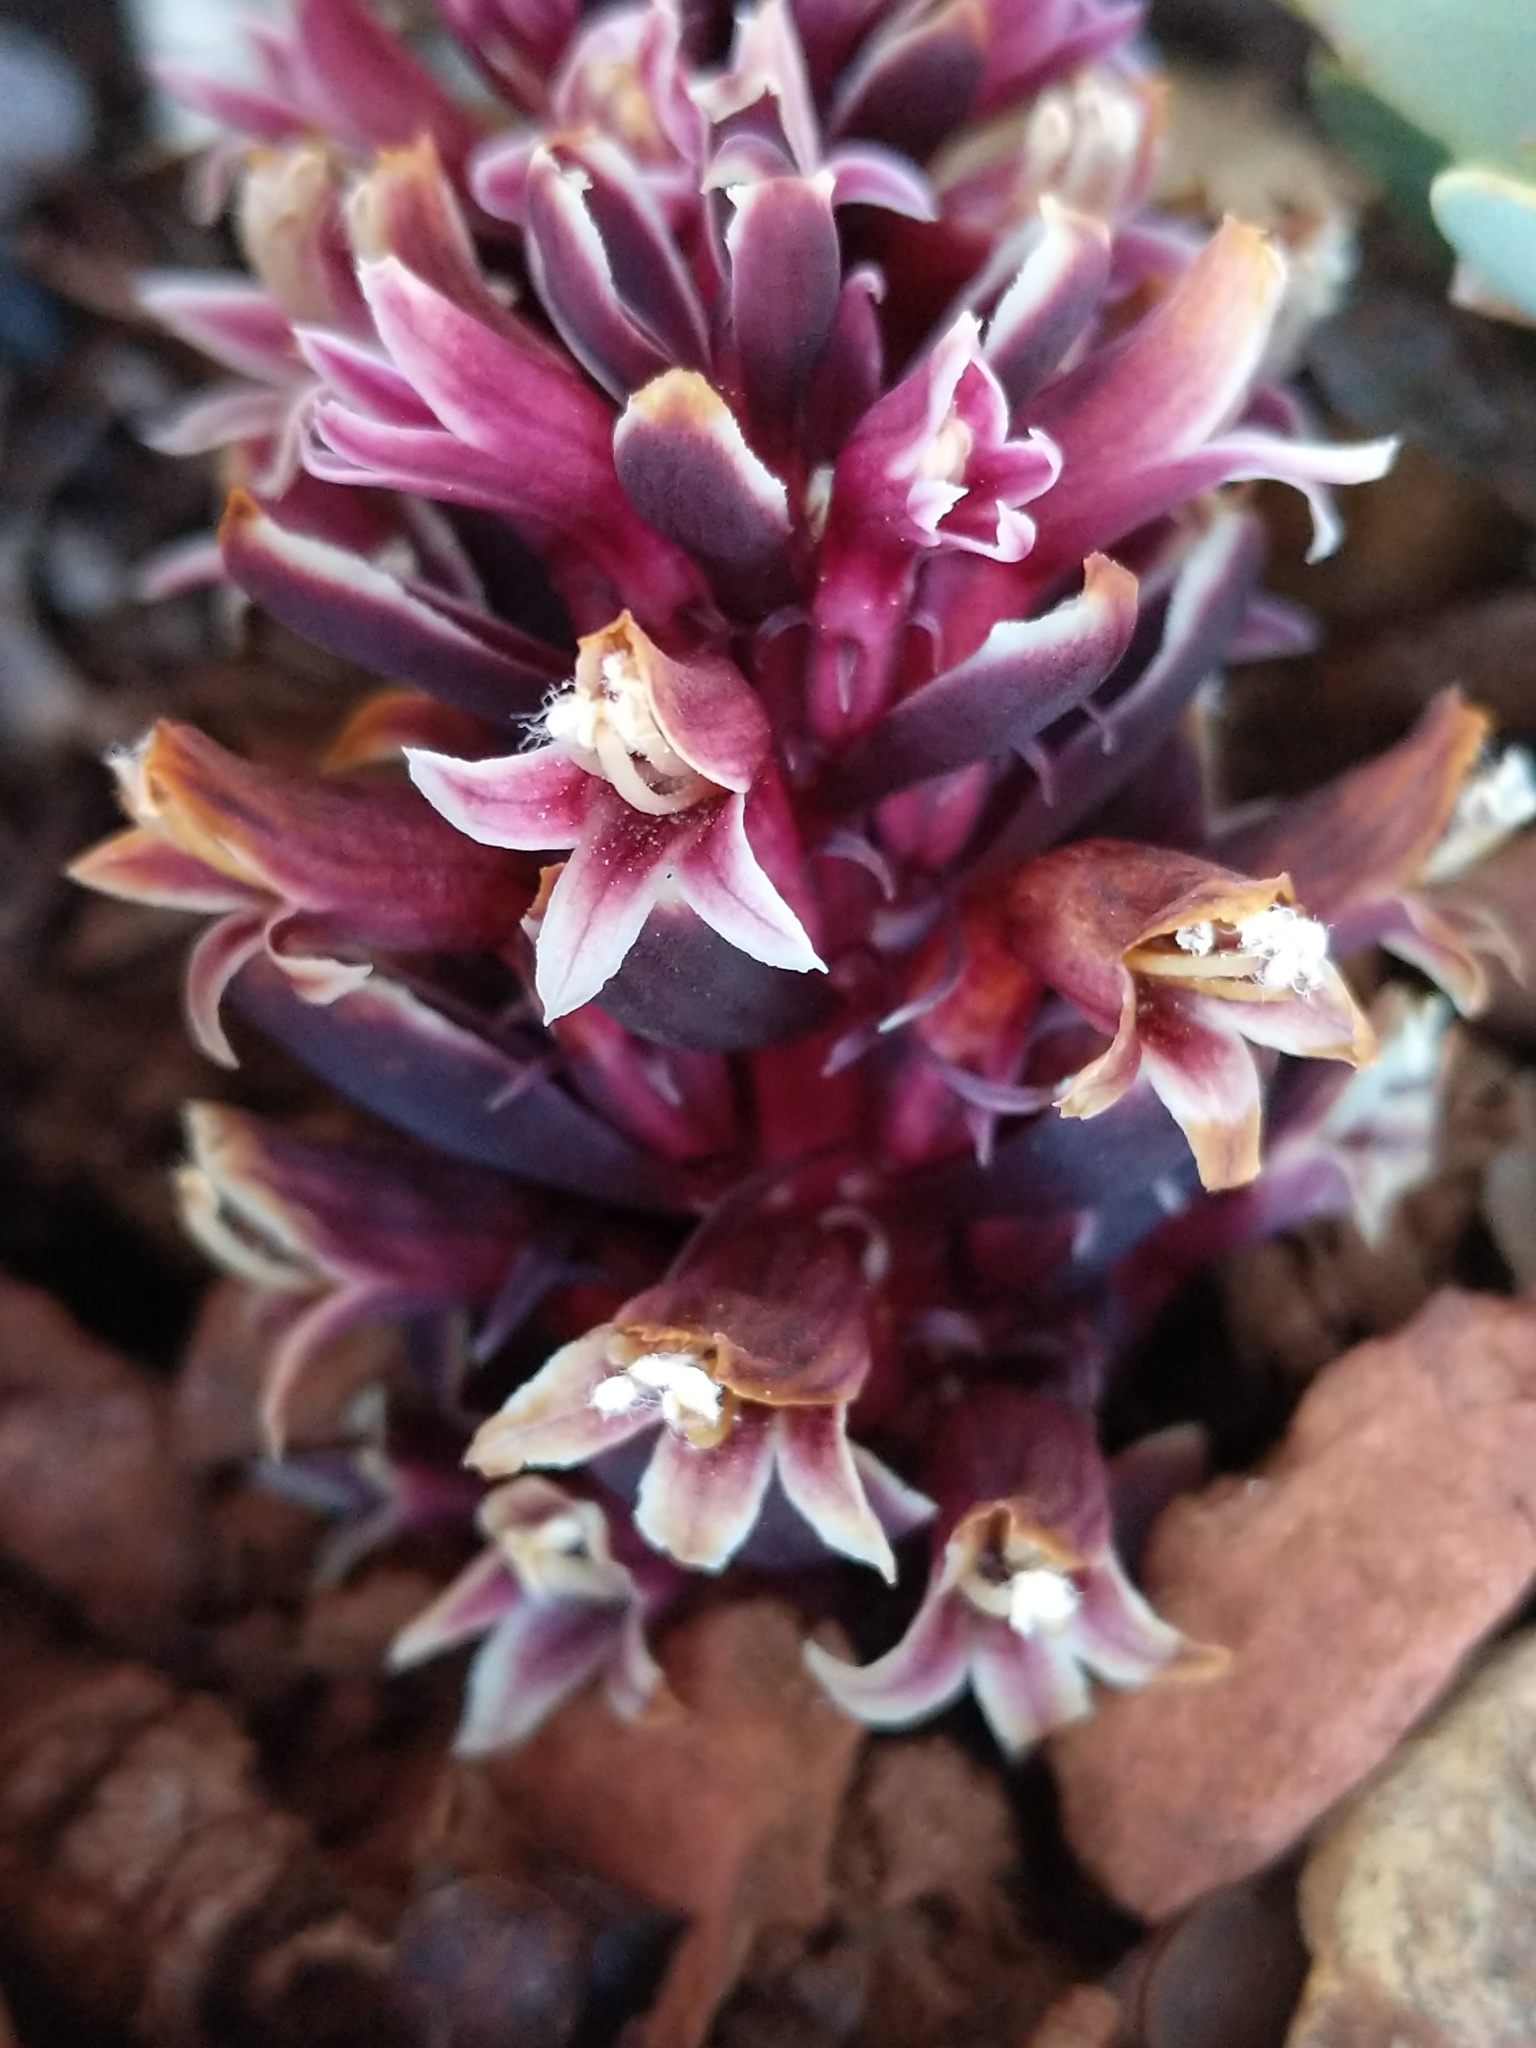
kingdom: Plantae
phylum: Tracheophyta
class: Magnoliopsida
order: Lamiales
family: Orobanchaceae
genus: Kopsiopsis
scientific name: Kopsiopsis strobilacea
